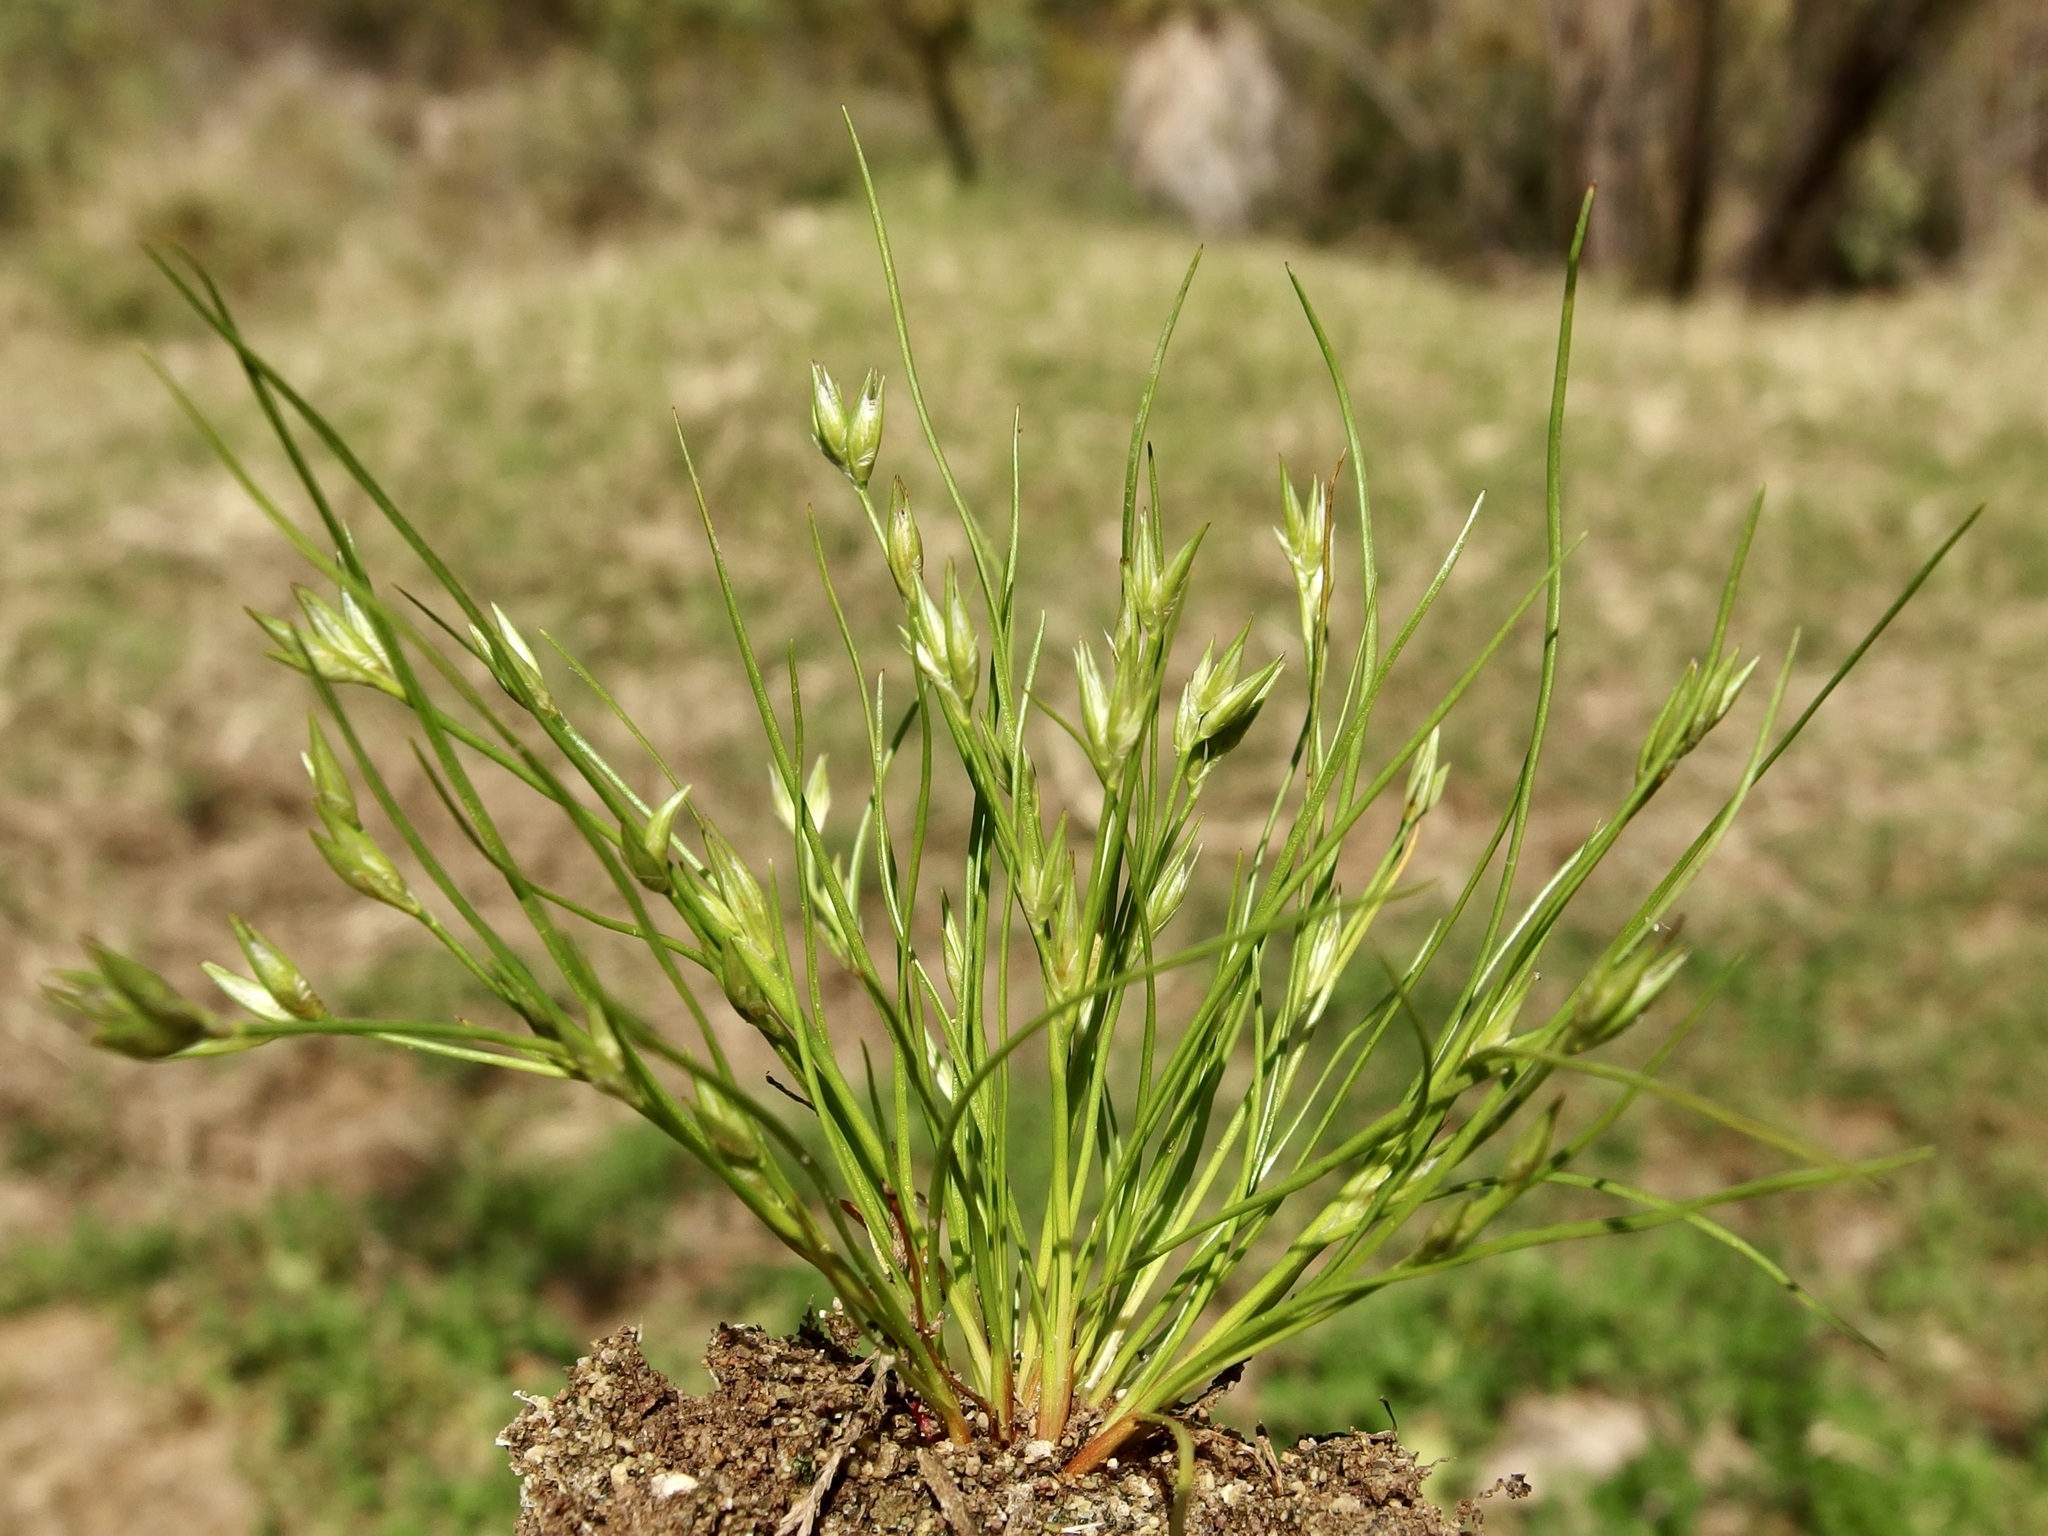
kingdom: Plantae
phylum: Tracheophyta
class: Liliopsida
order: Poales
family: Juncaceae
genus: Juncus
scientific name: Juncus bufonius
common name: Toad rush
